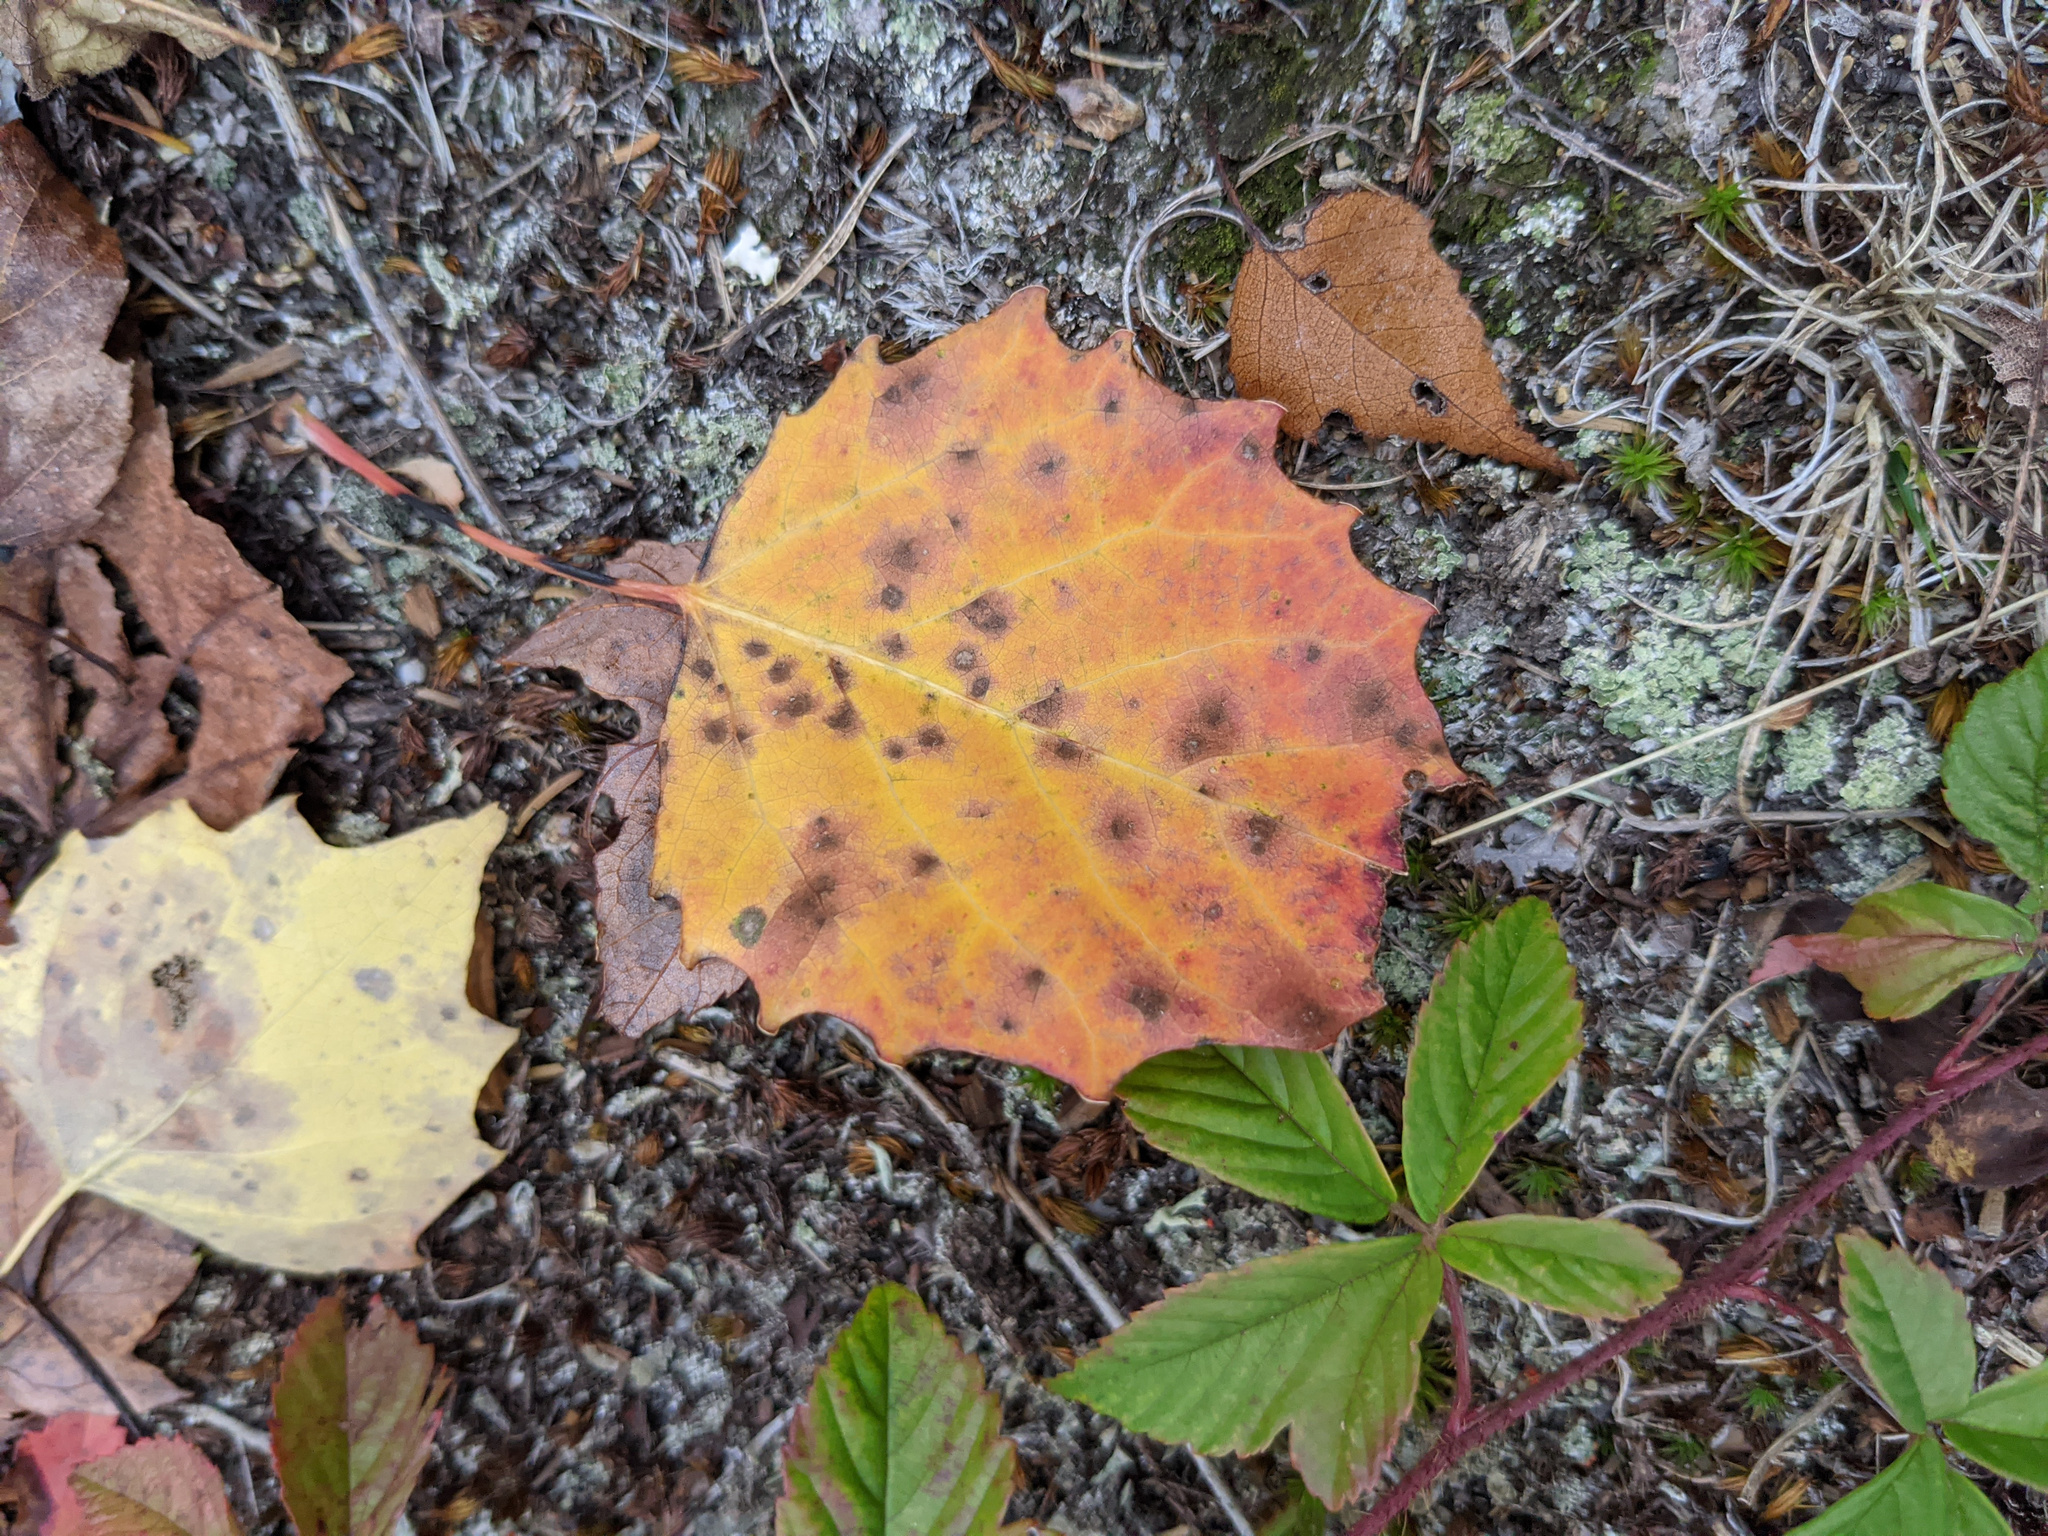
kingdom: Plantae
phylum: Tracheophyta
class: Magnoliopsida
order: Malpighiales
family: Salicaceae
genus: Populus
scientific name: Populus grandidentata
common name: Bigtooth aspen
